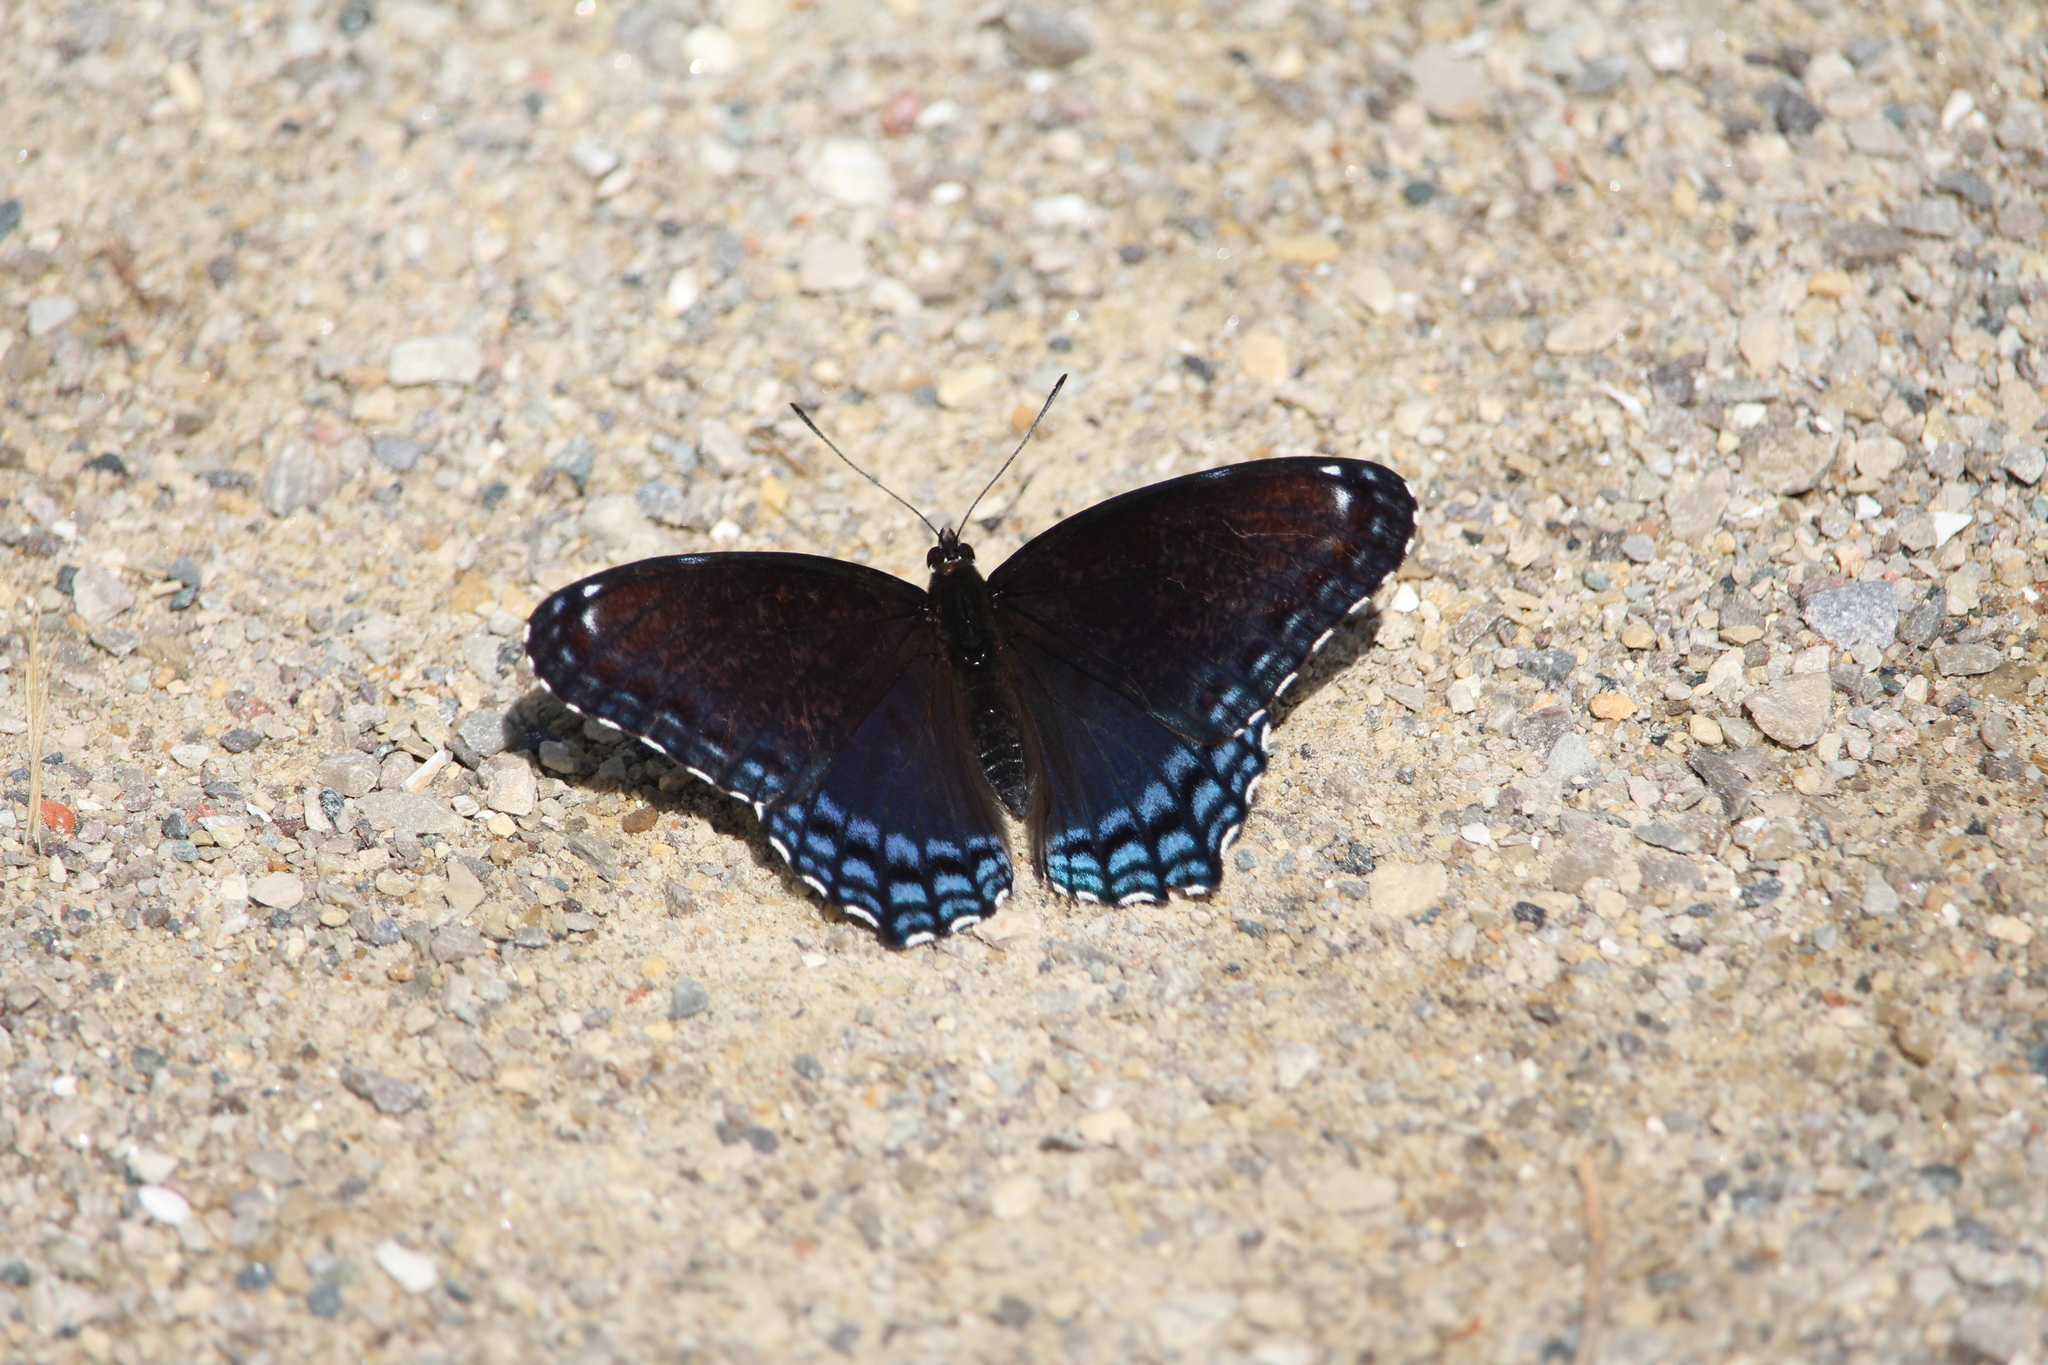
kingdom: Animalia
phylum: Arthropoda
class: Insecta
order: Lepidoptera
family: Nymphalidae
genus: Limenitis
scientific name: Limenitis astyanax
